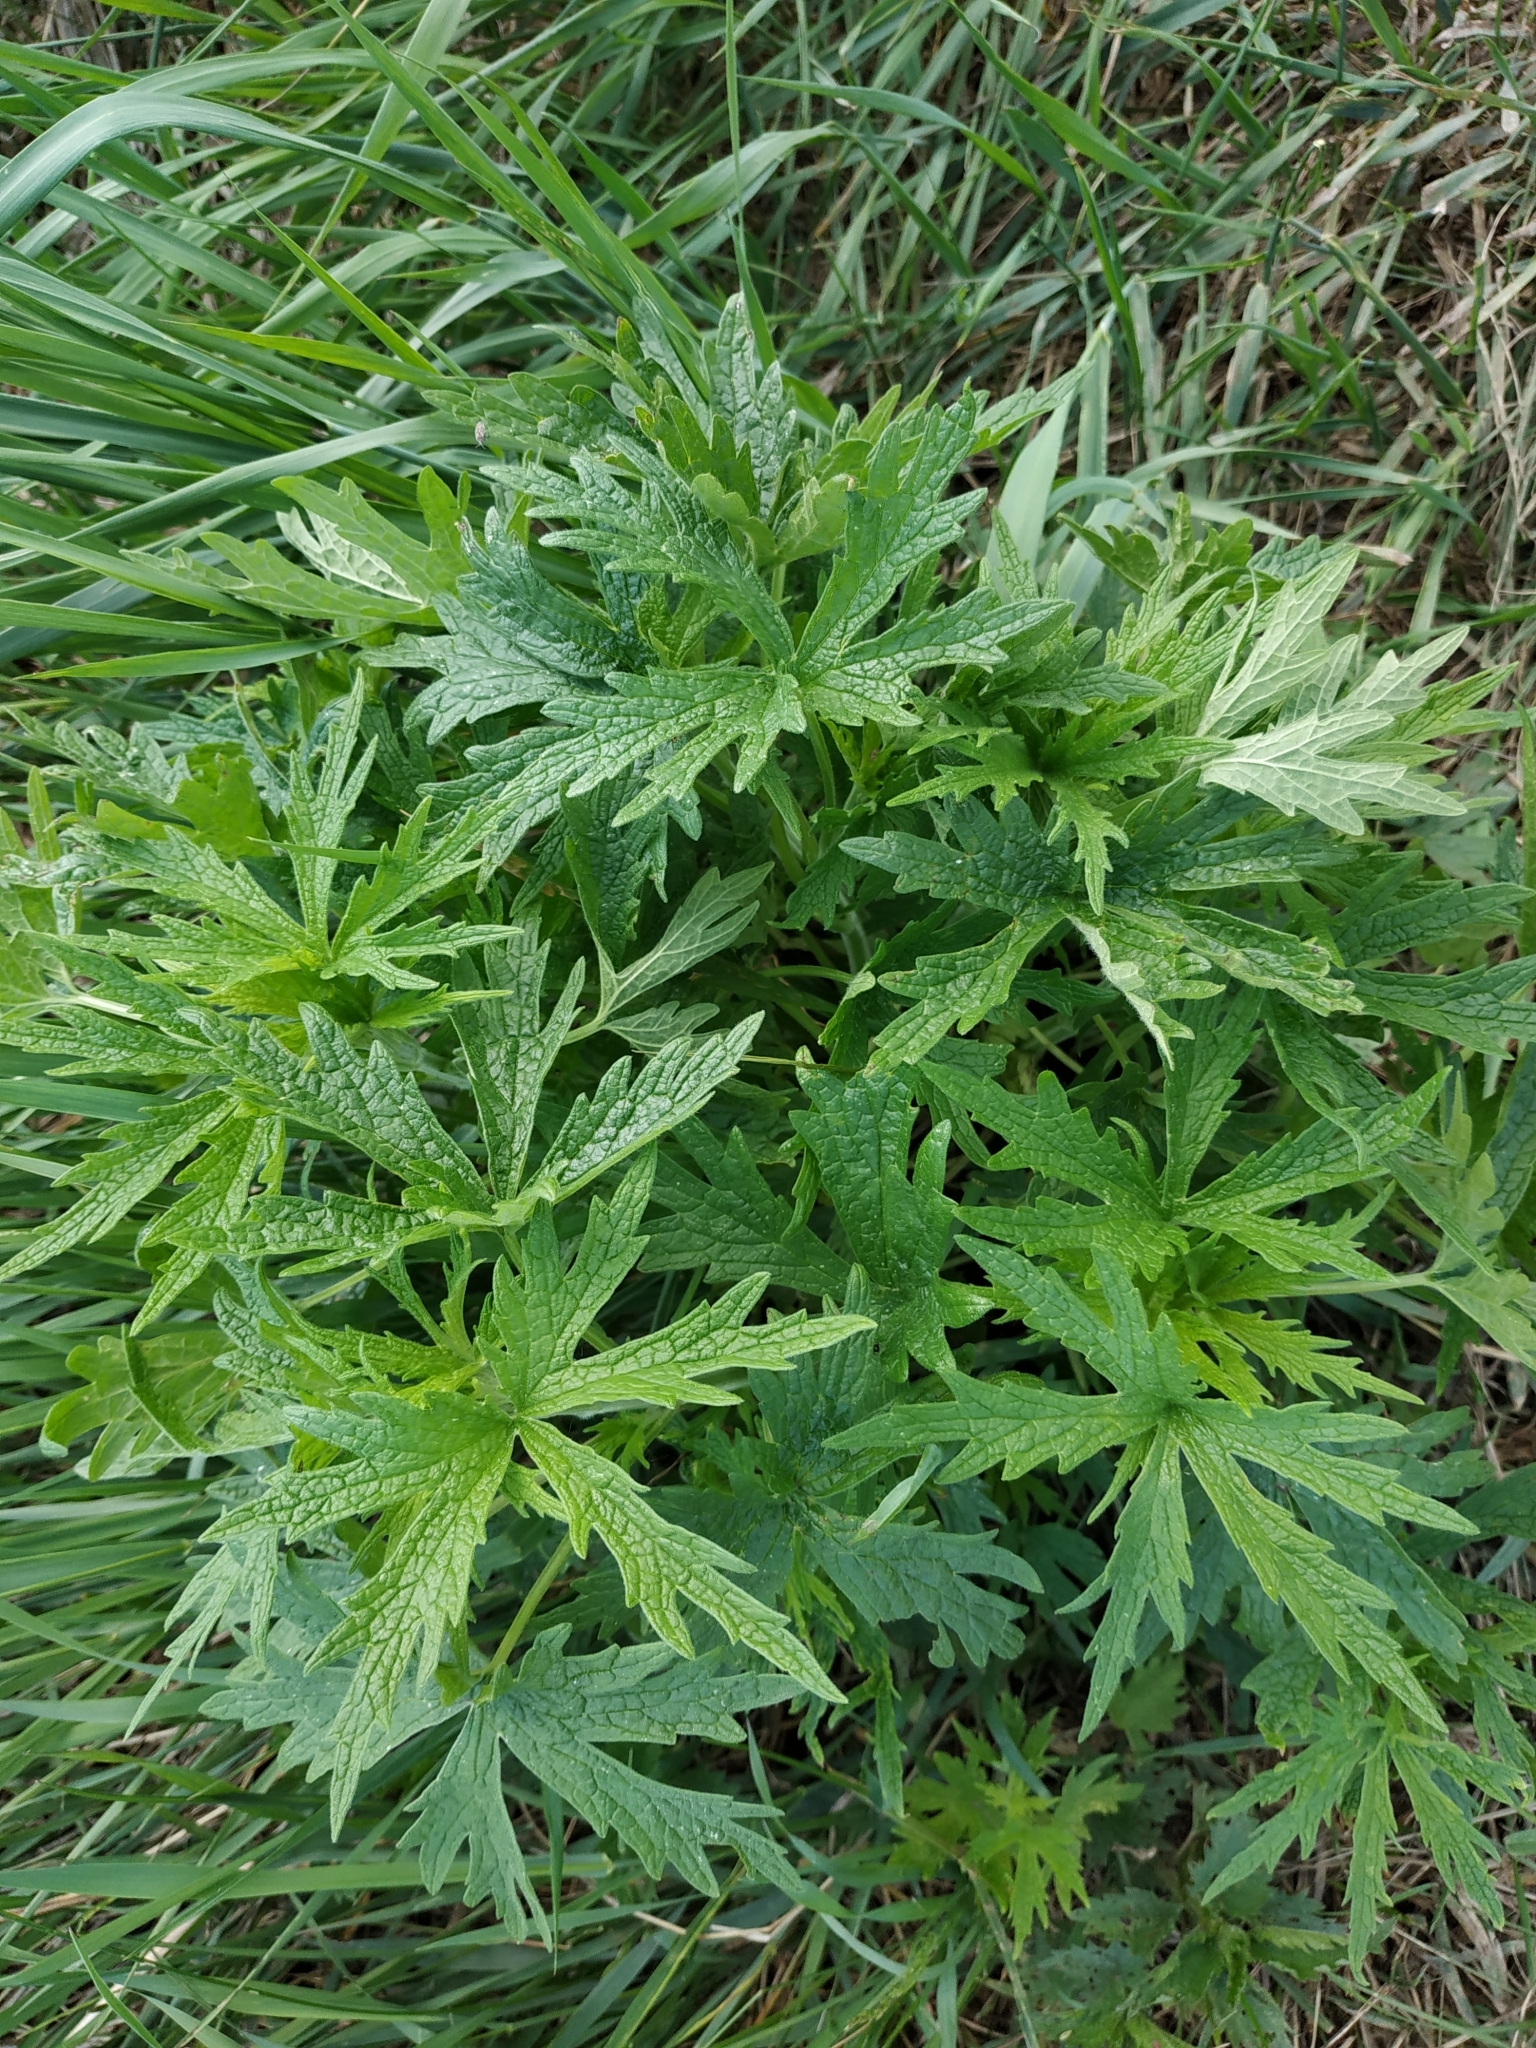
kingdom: Plantae
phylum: Tracheophyta
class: Magnoliopsida
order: Lamiales
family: Lamiaceae
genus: Leonurus
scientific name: Leonurus glaucescens
